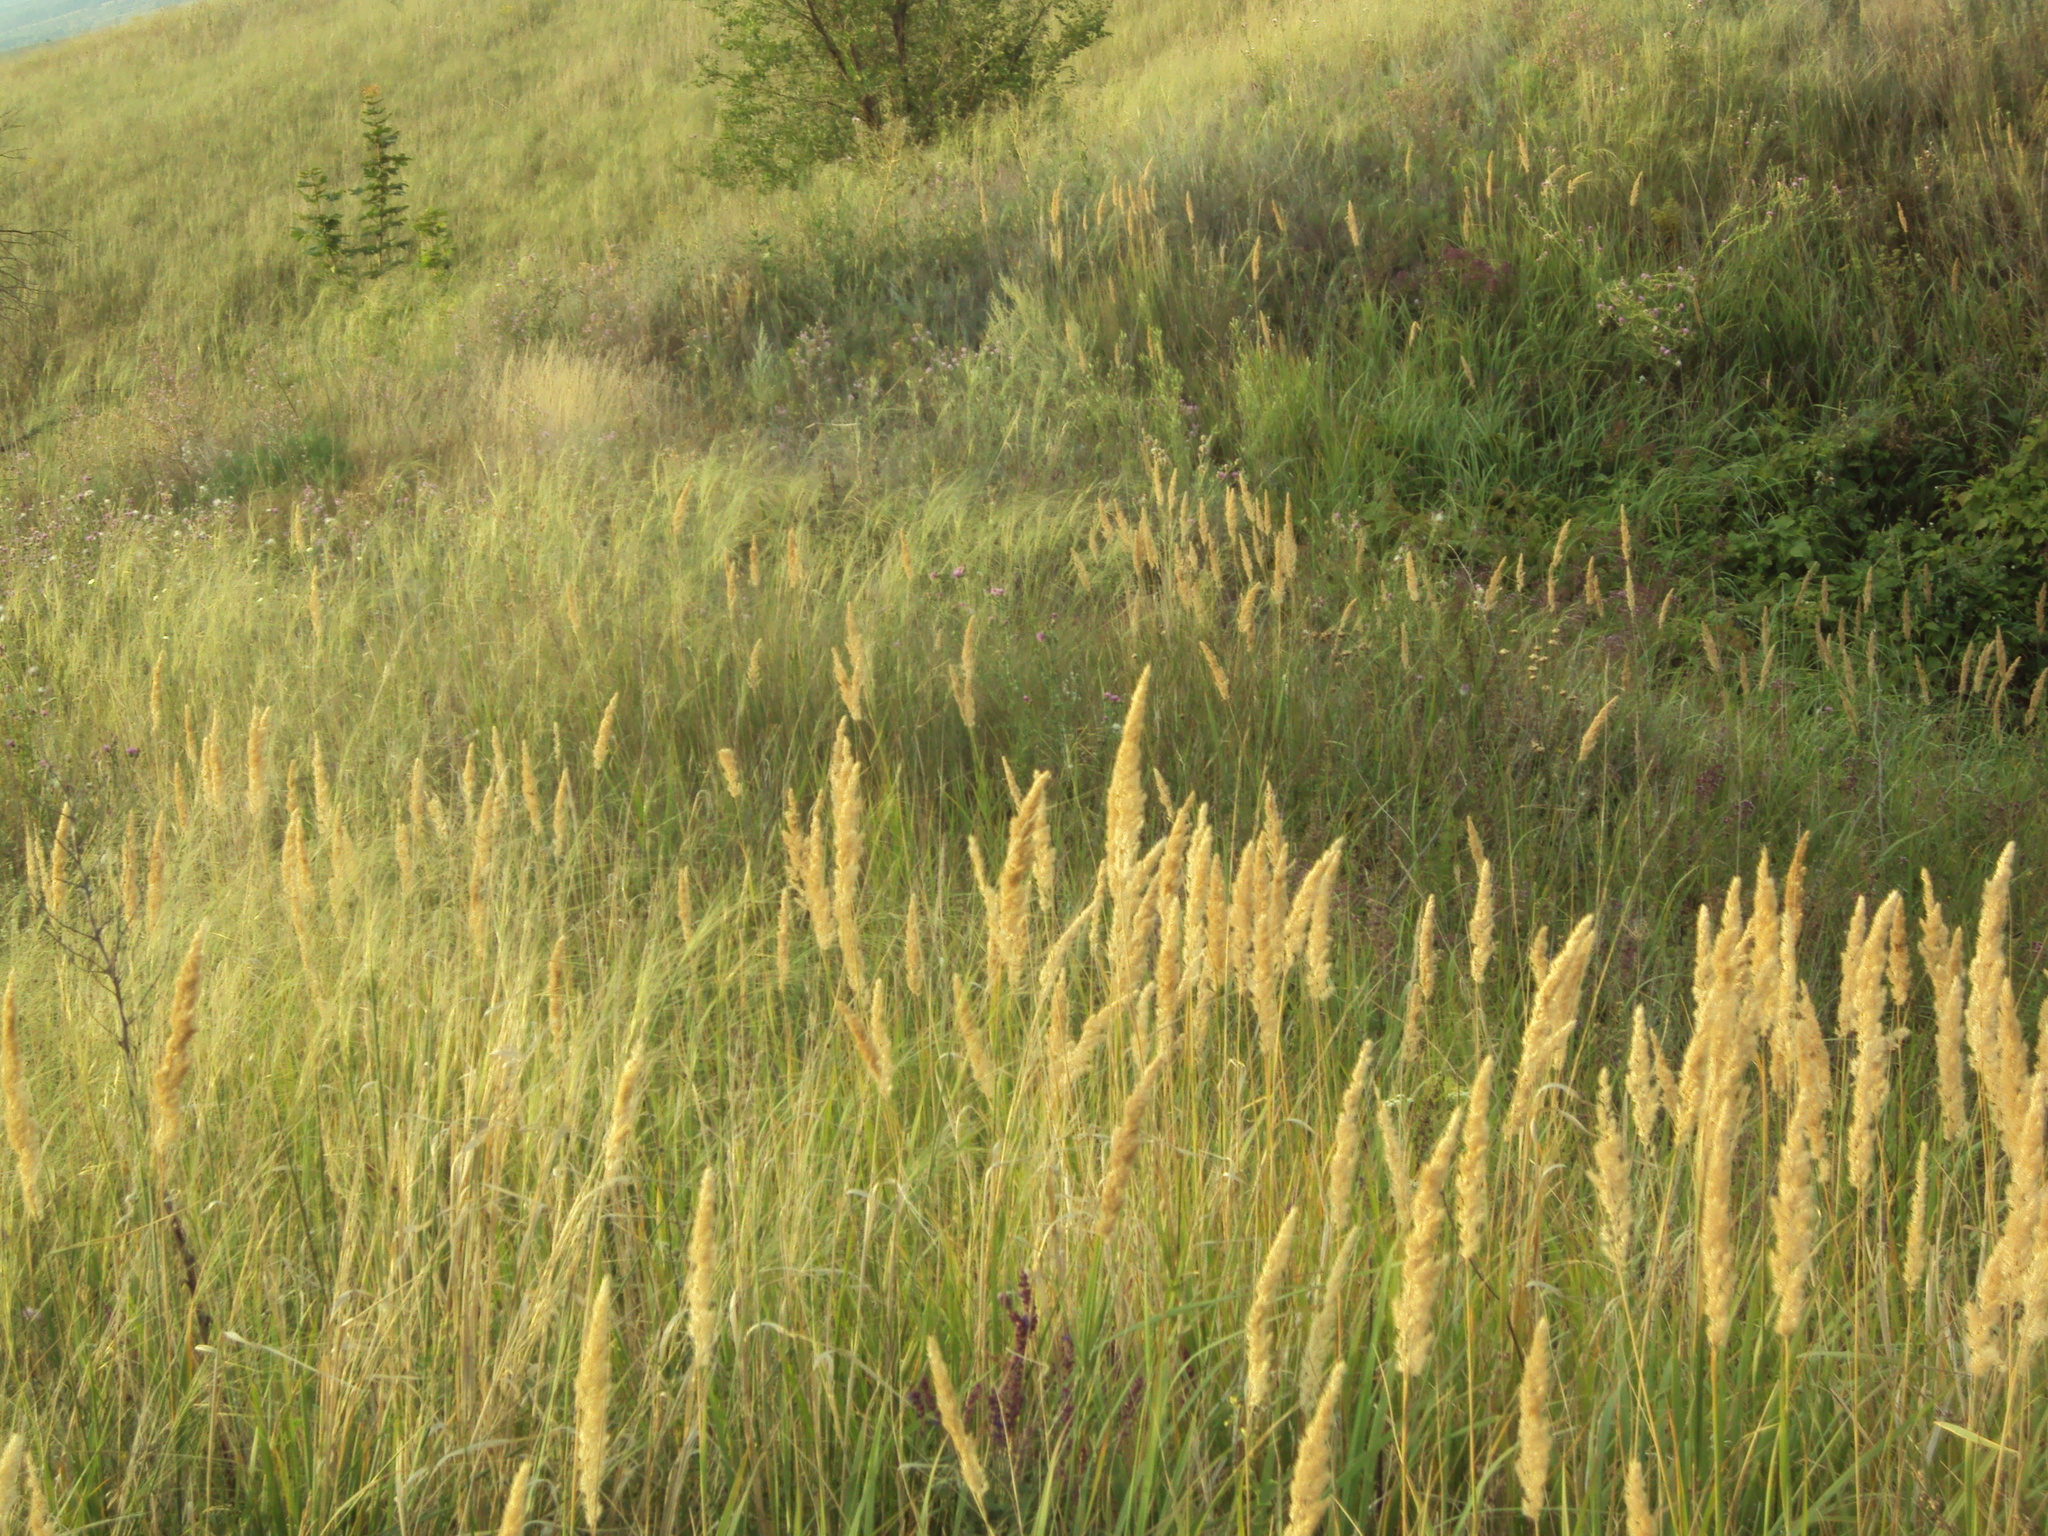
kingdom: Plantae
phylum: Tracheophyta
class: Liliopsida
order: Poales
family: Poaceae
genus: Calamagrostis
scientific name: Calamagrostis epigejos
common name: Wood small-reed
